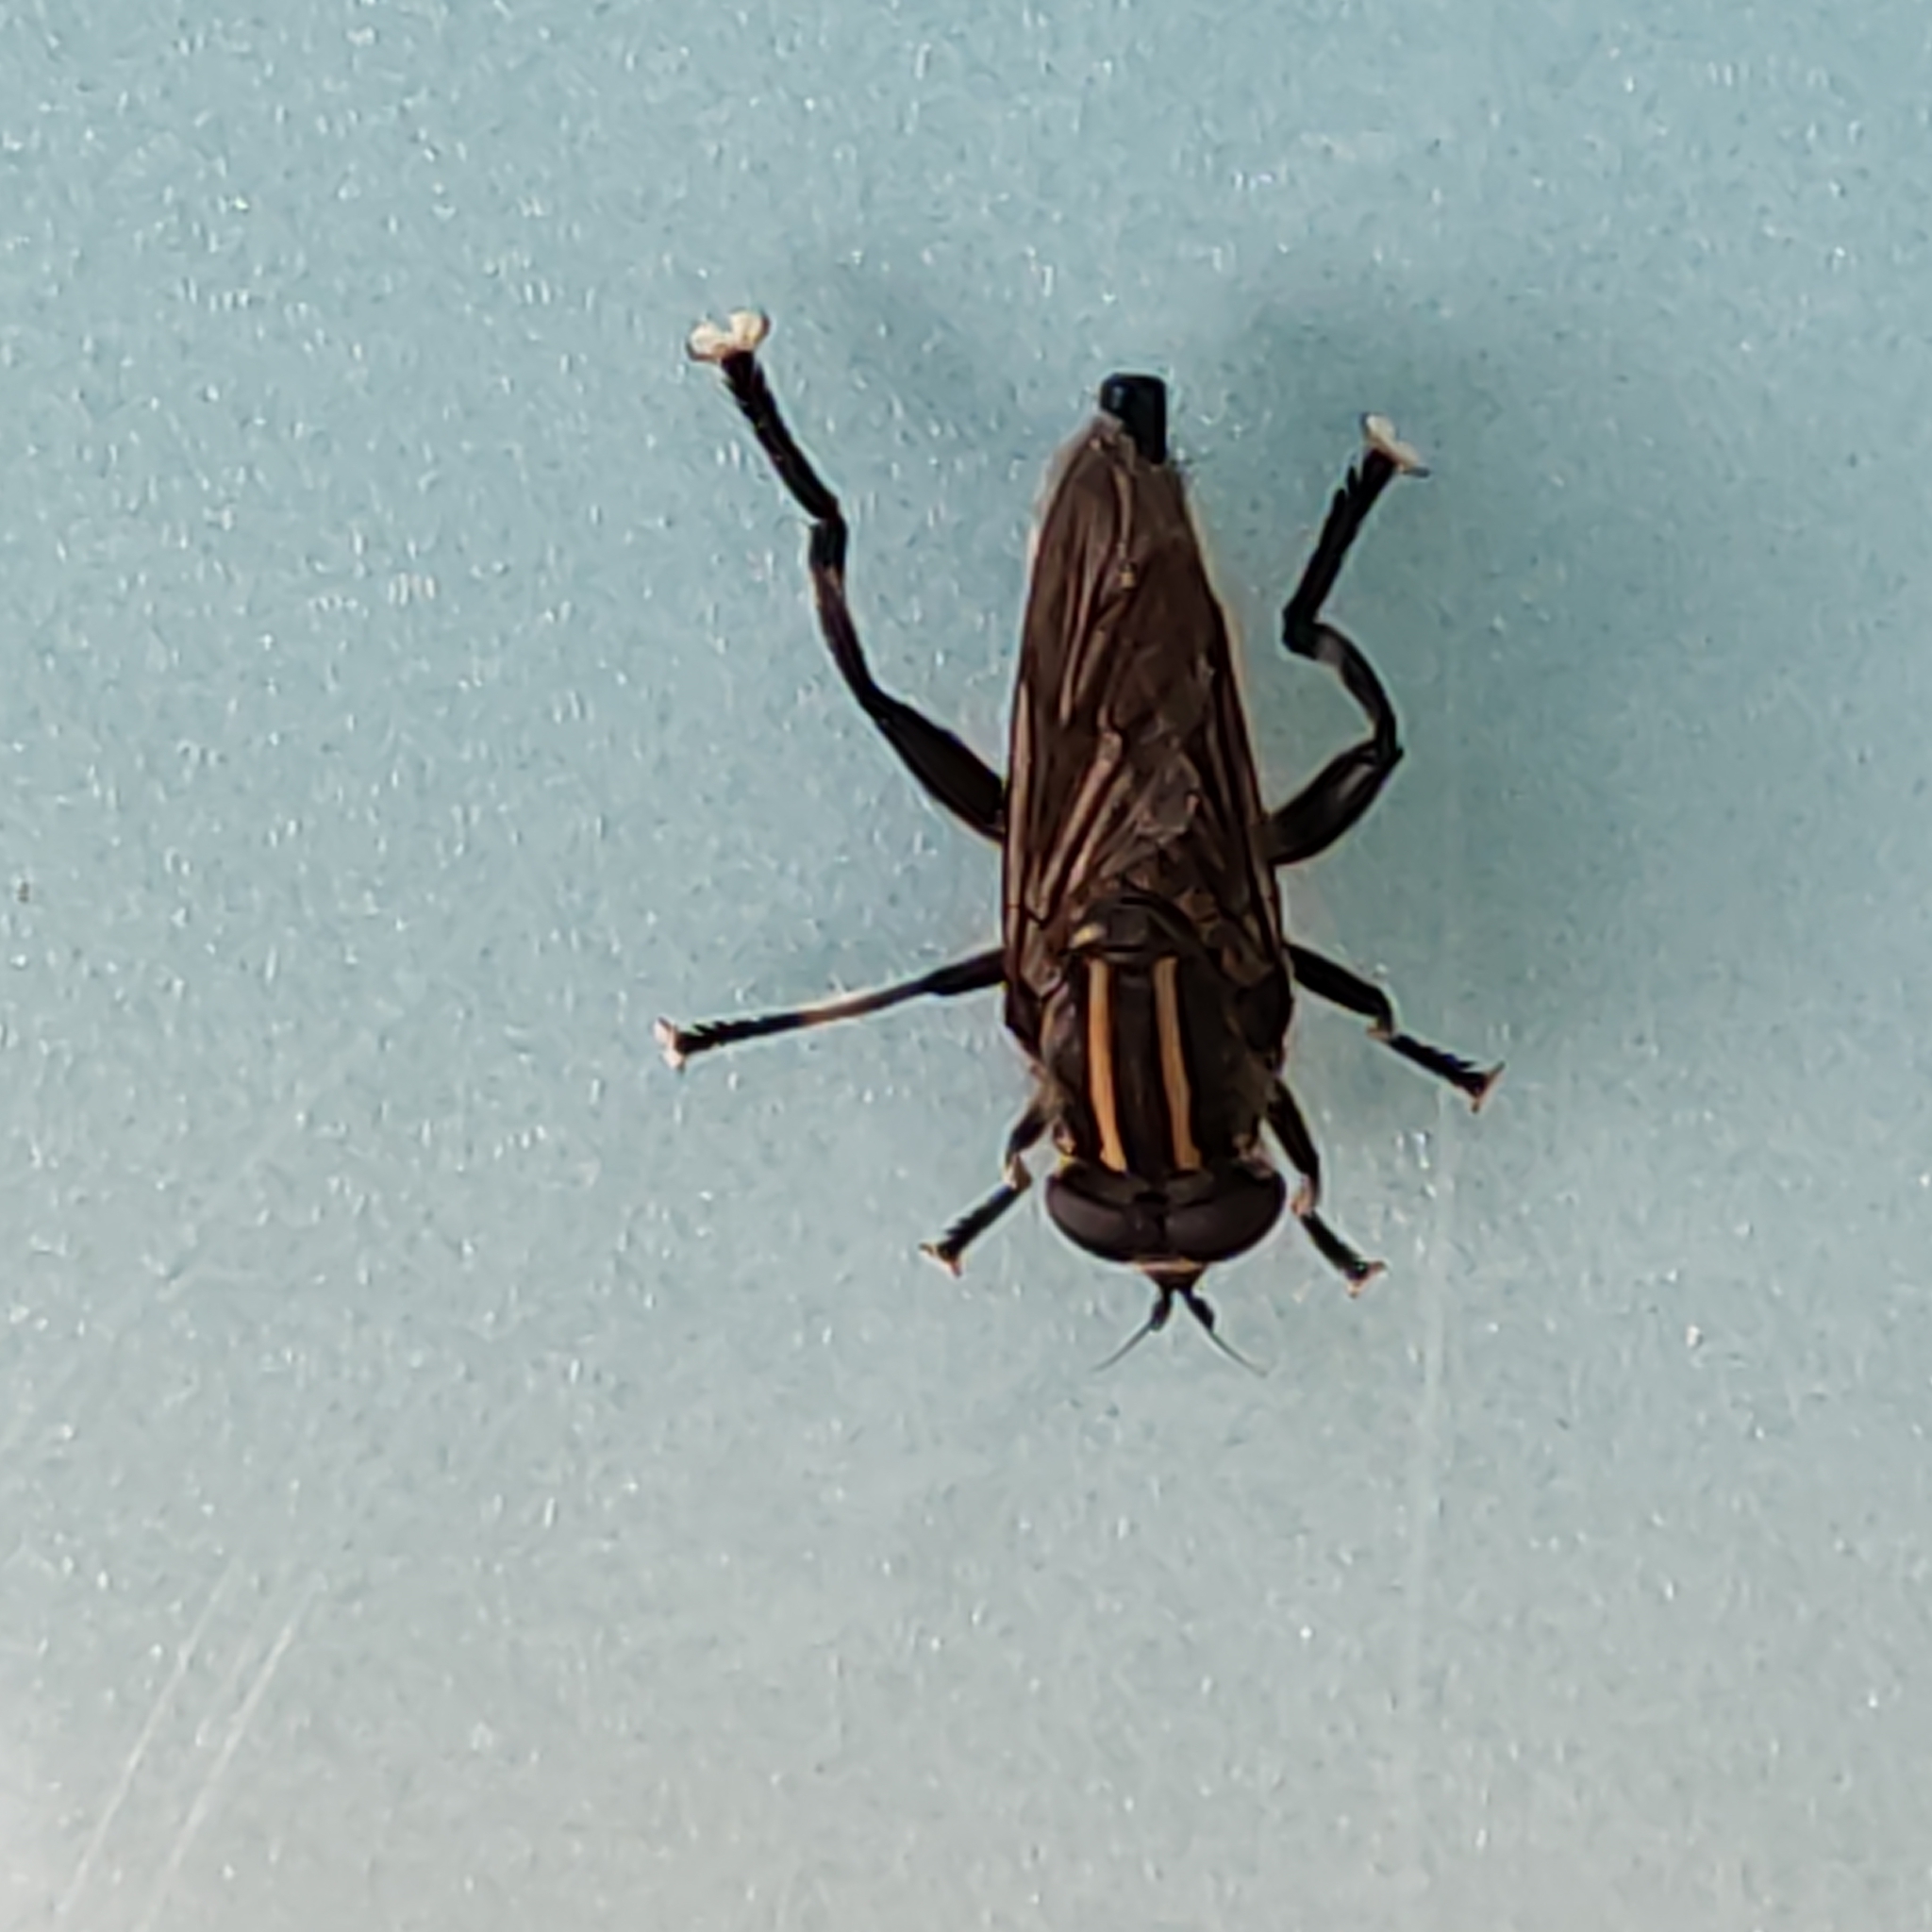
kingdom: Animalia
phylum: Arthropoda
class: Insecta
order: Diptera
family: Syrphidae
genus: Orthoprosopa
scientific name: Orthoprosopa bilineata
